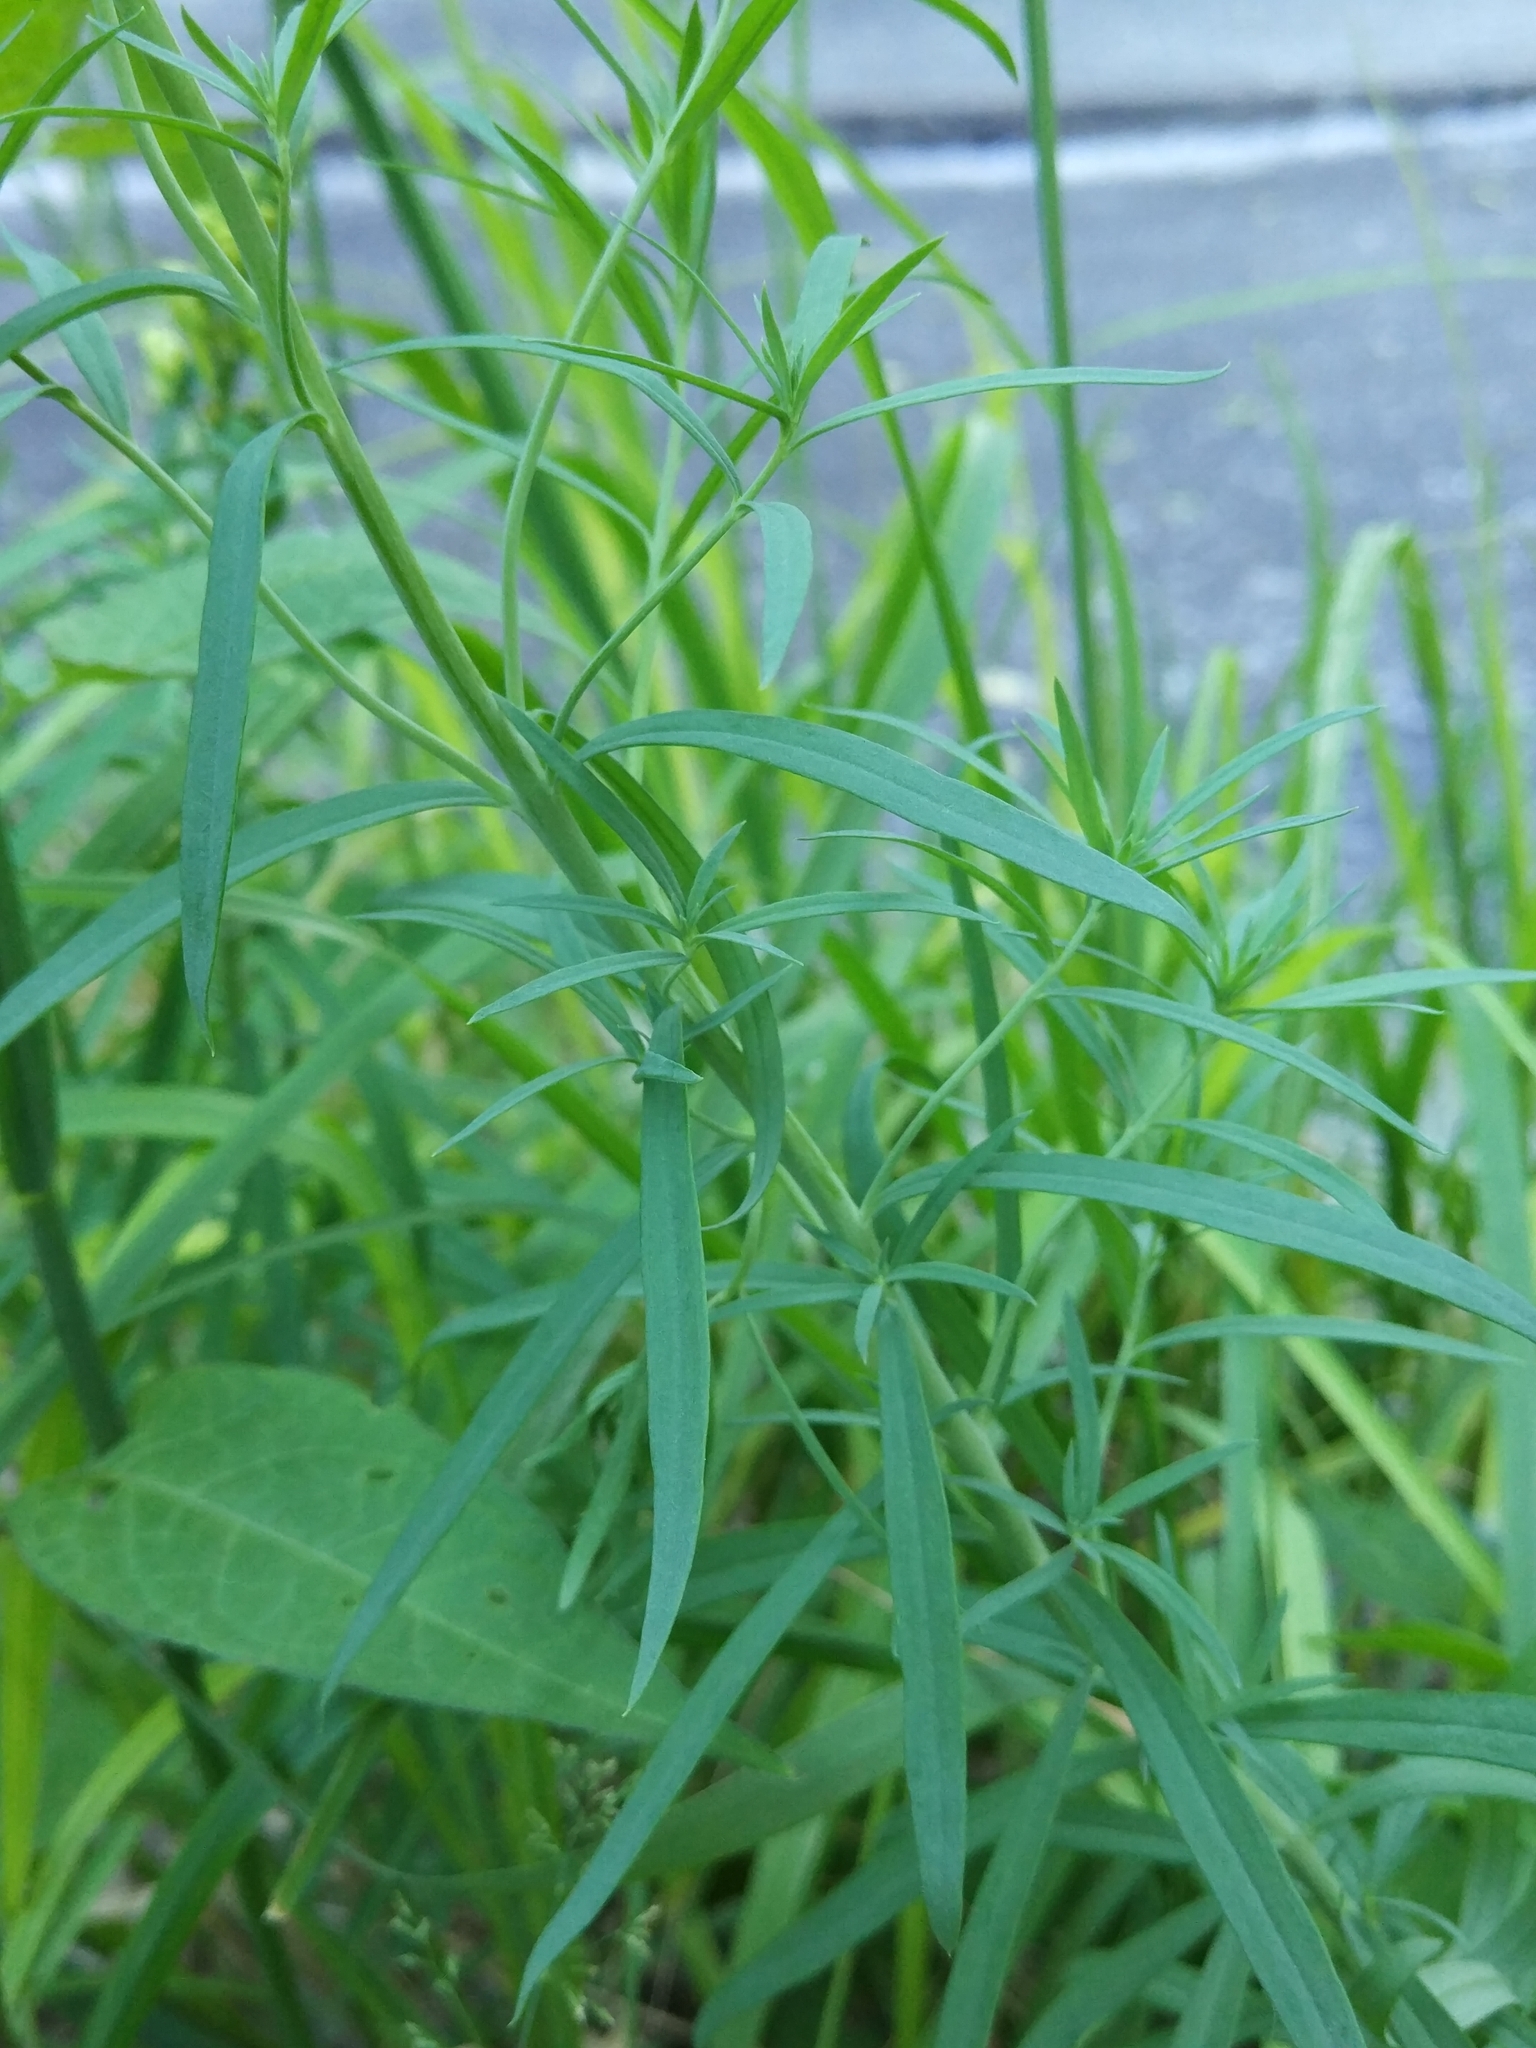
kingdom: Plantae
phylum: Tracheophyta
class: Magnoliopsida
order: Lamiales
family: Plantaginaceae
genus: Linaria
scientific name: Linaria vulgaris
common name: Butter and eggs
